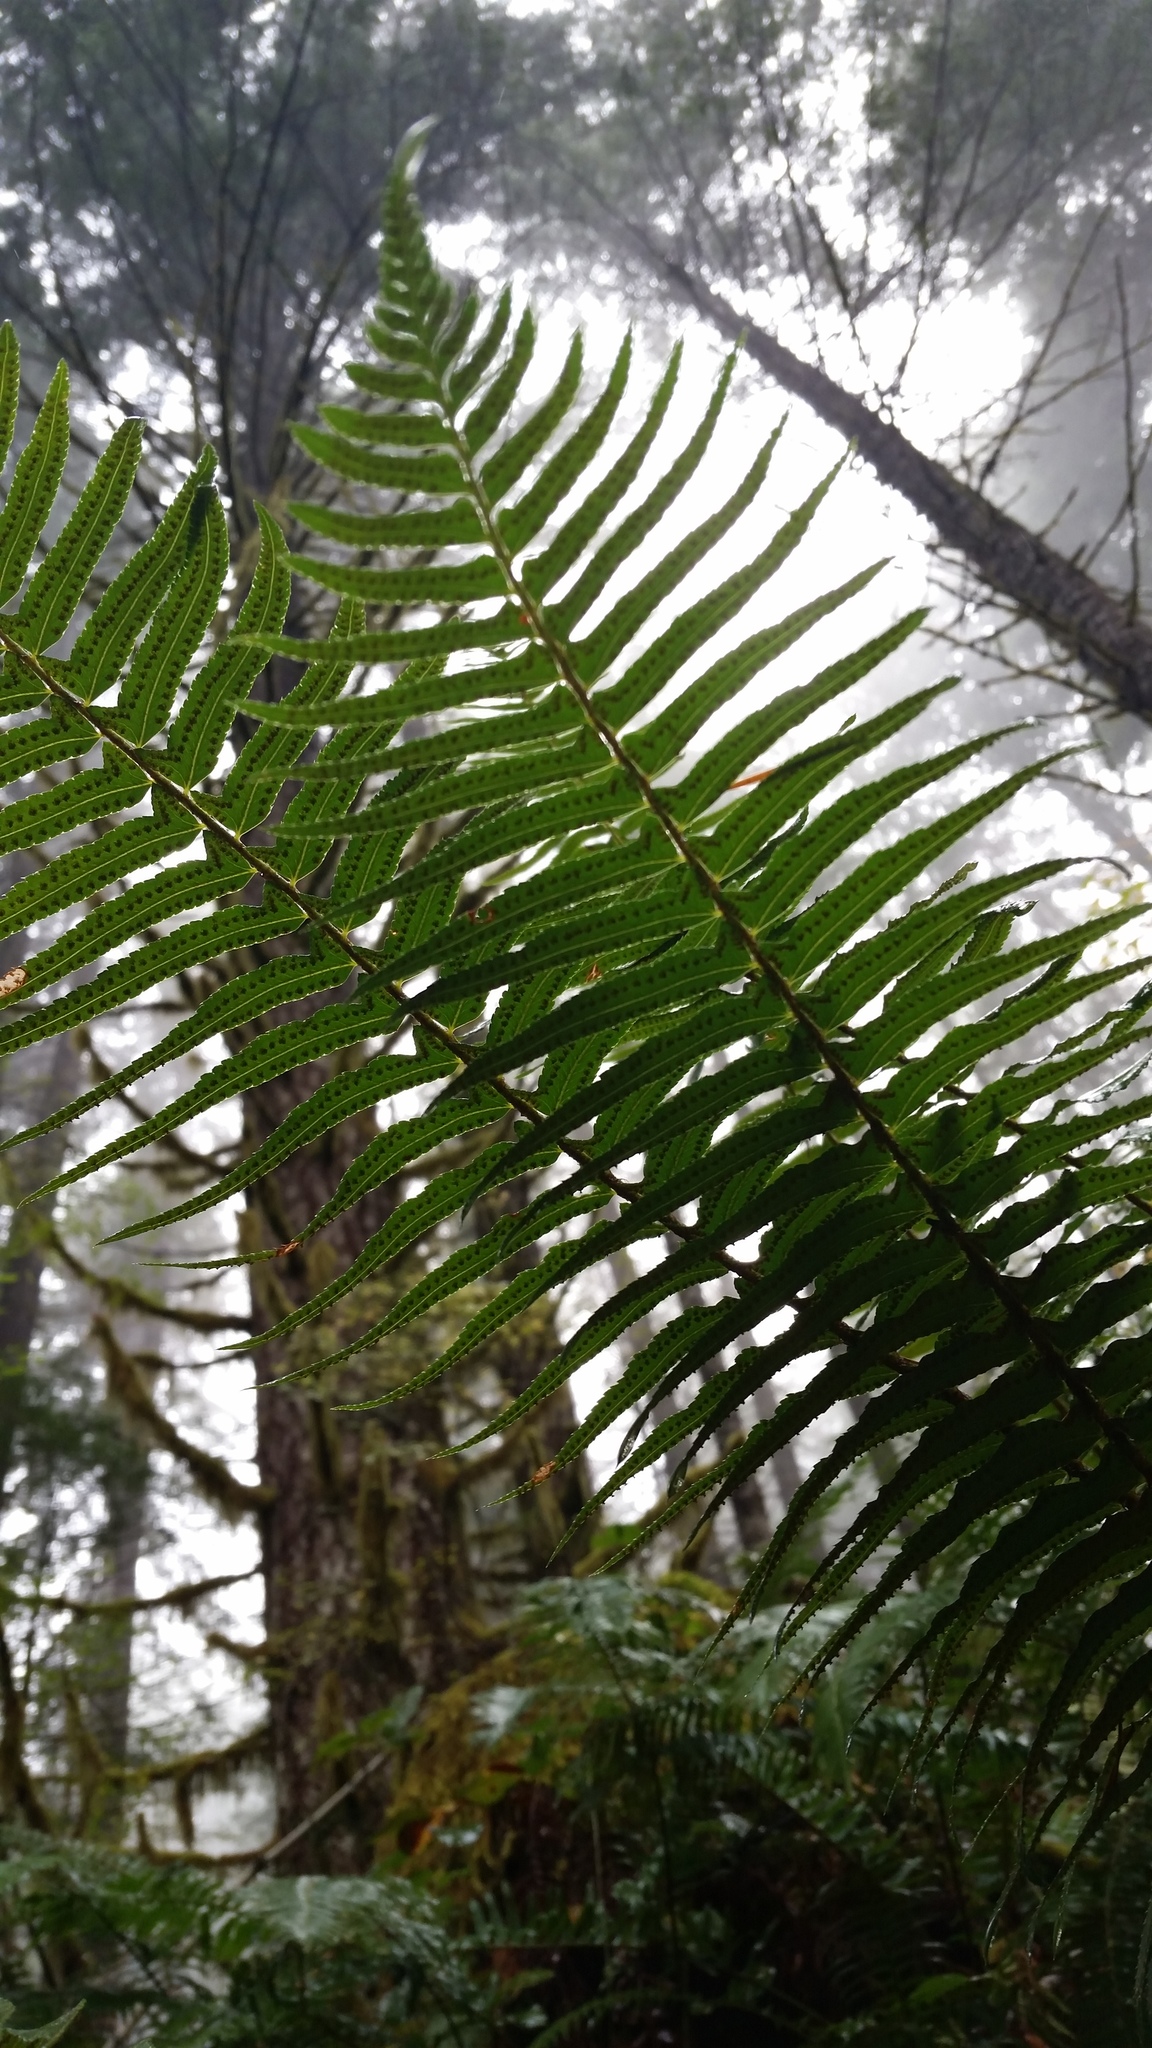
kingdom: Plantae
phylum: Tracheophyta
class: Polypodiopsida
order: Polypodiales
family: Dryopteridaceae
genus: Polystichum
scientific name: Polystichum munitum
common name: Western sword-fern
